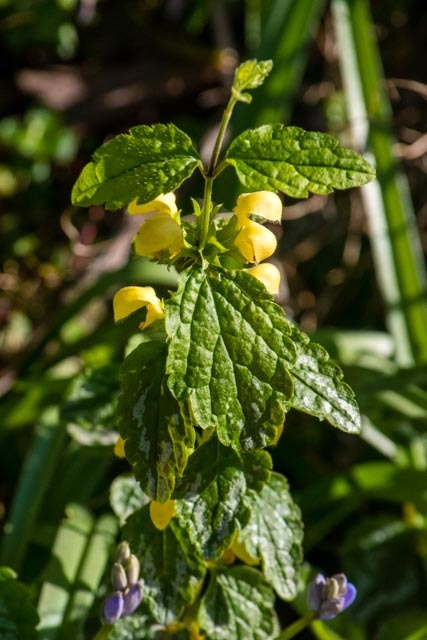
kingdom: Plantae
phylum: Tracheophyta
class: Magnoliopsida
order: Lamiales
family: Lamiaceae
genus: Lamium
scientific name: Lamium galeobdolon
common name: Yellow archangel
